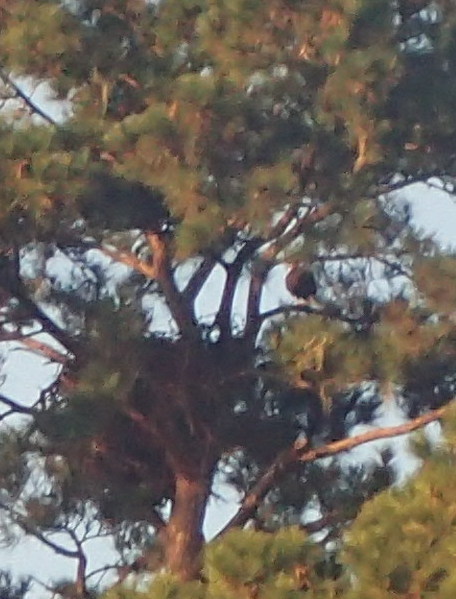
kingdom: Animalia
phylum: Chordata
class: Aves
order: Accipitriformes
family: Accipitridae
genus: Haliaeetus
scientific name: Haliaeetus leucocephalus
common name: Bald eagle
